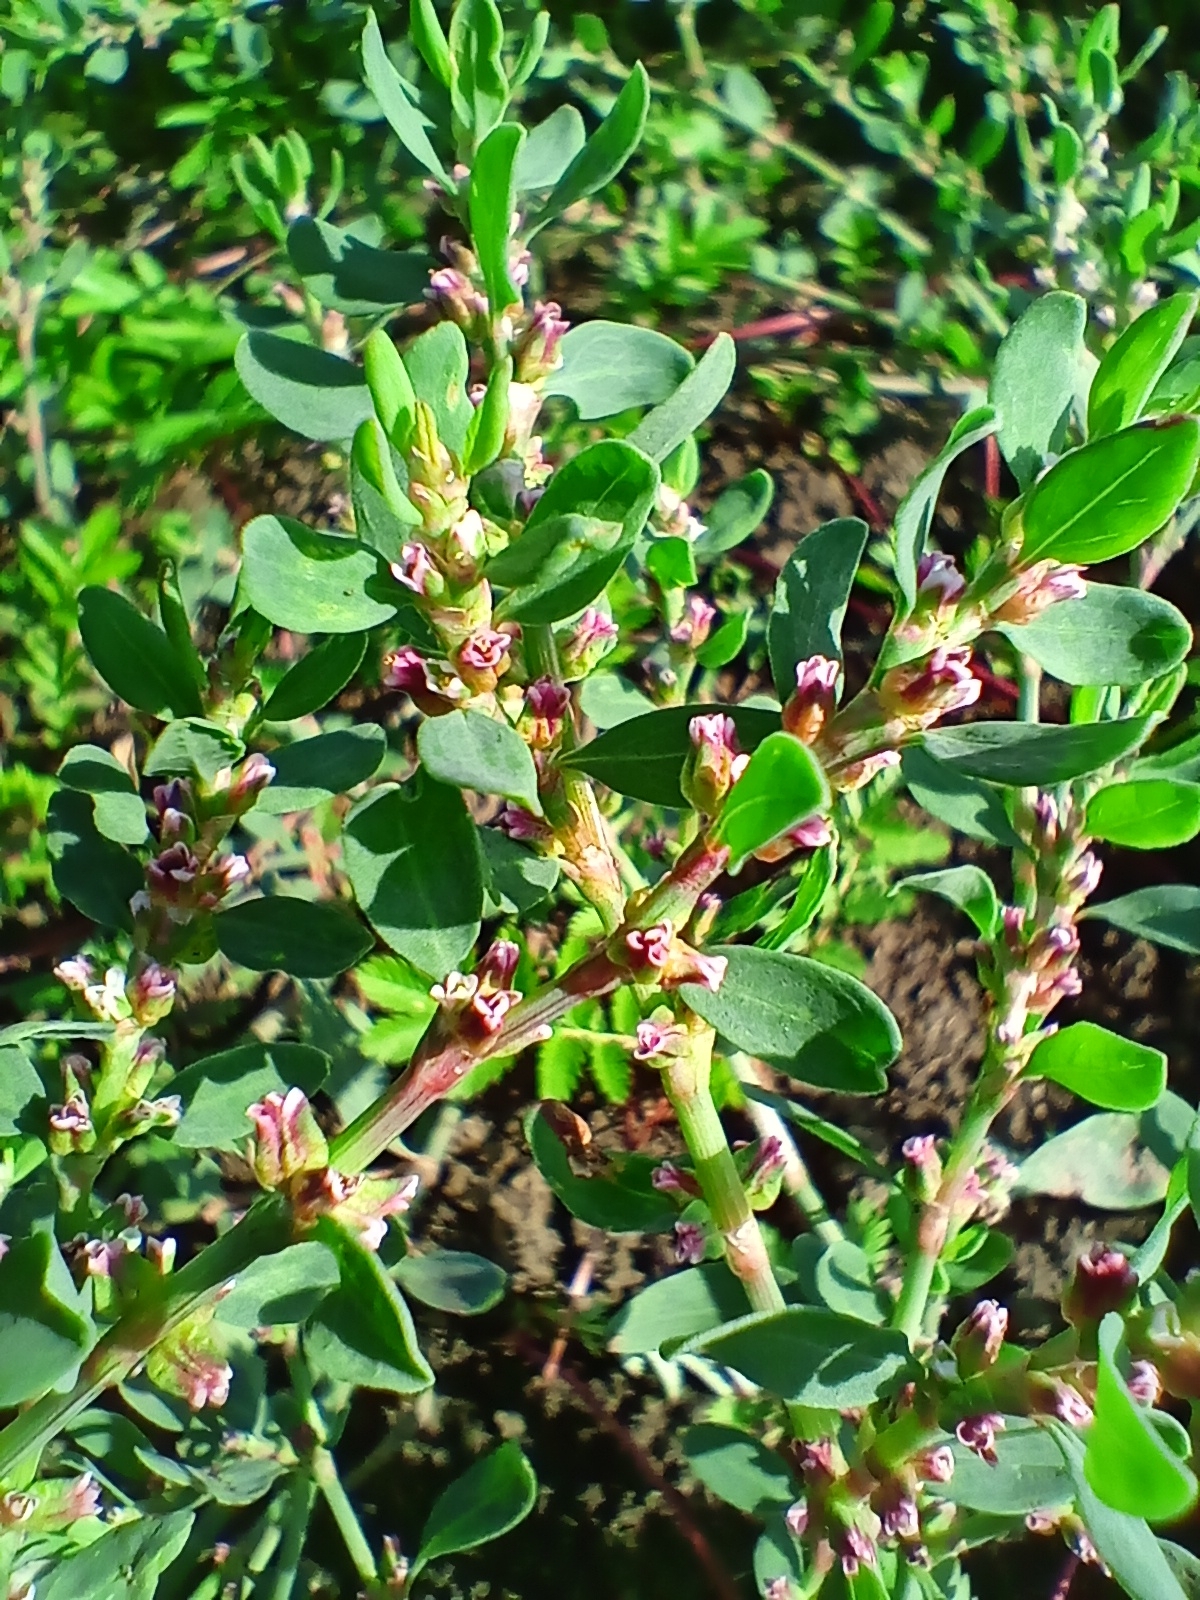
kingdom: Plantae
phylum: Tracheophyta
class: Magnoliopsida
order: Caryophyllales
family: Polygonaceae
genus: Polygonum
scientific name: Polygonum
